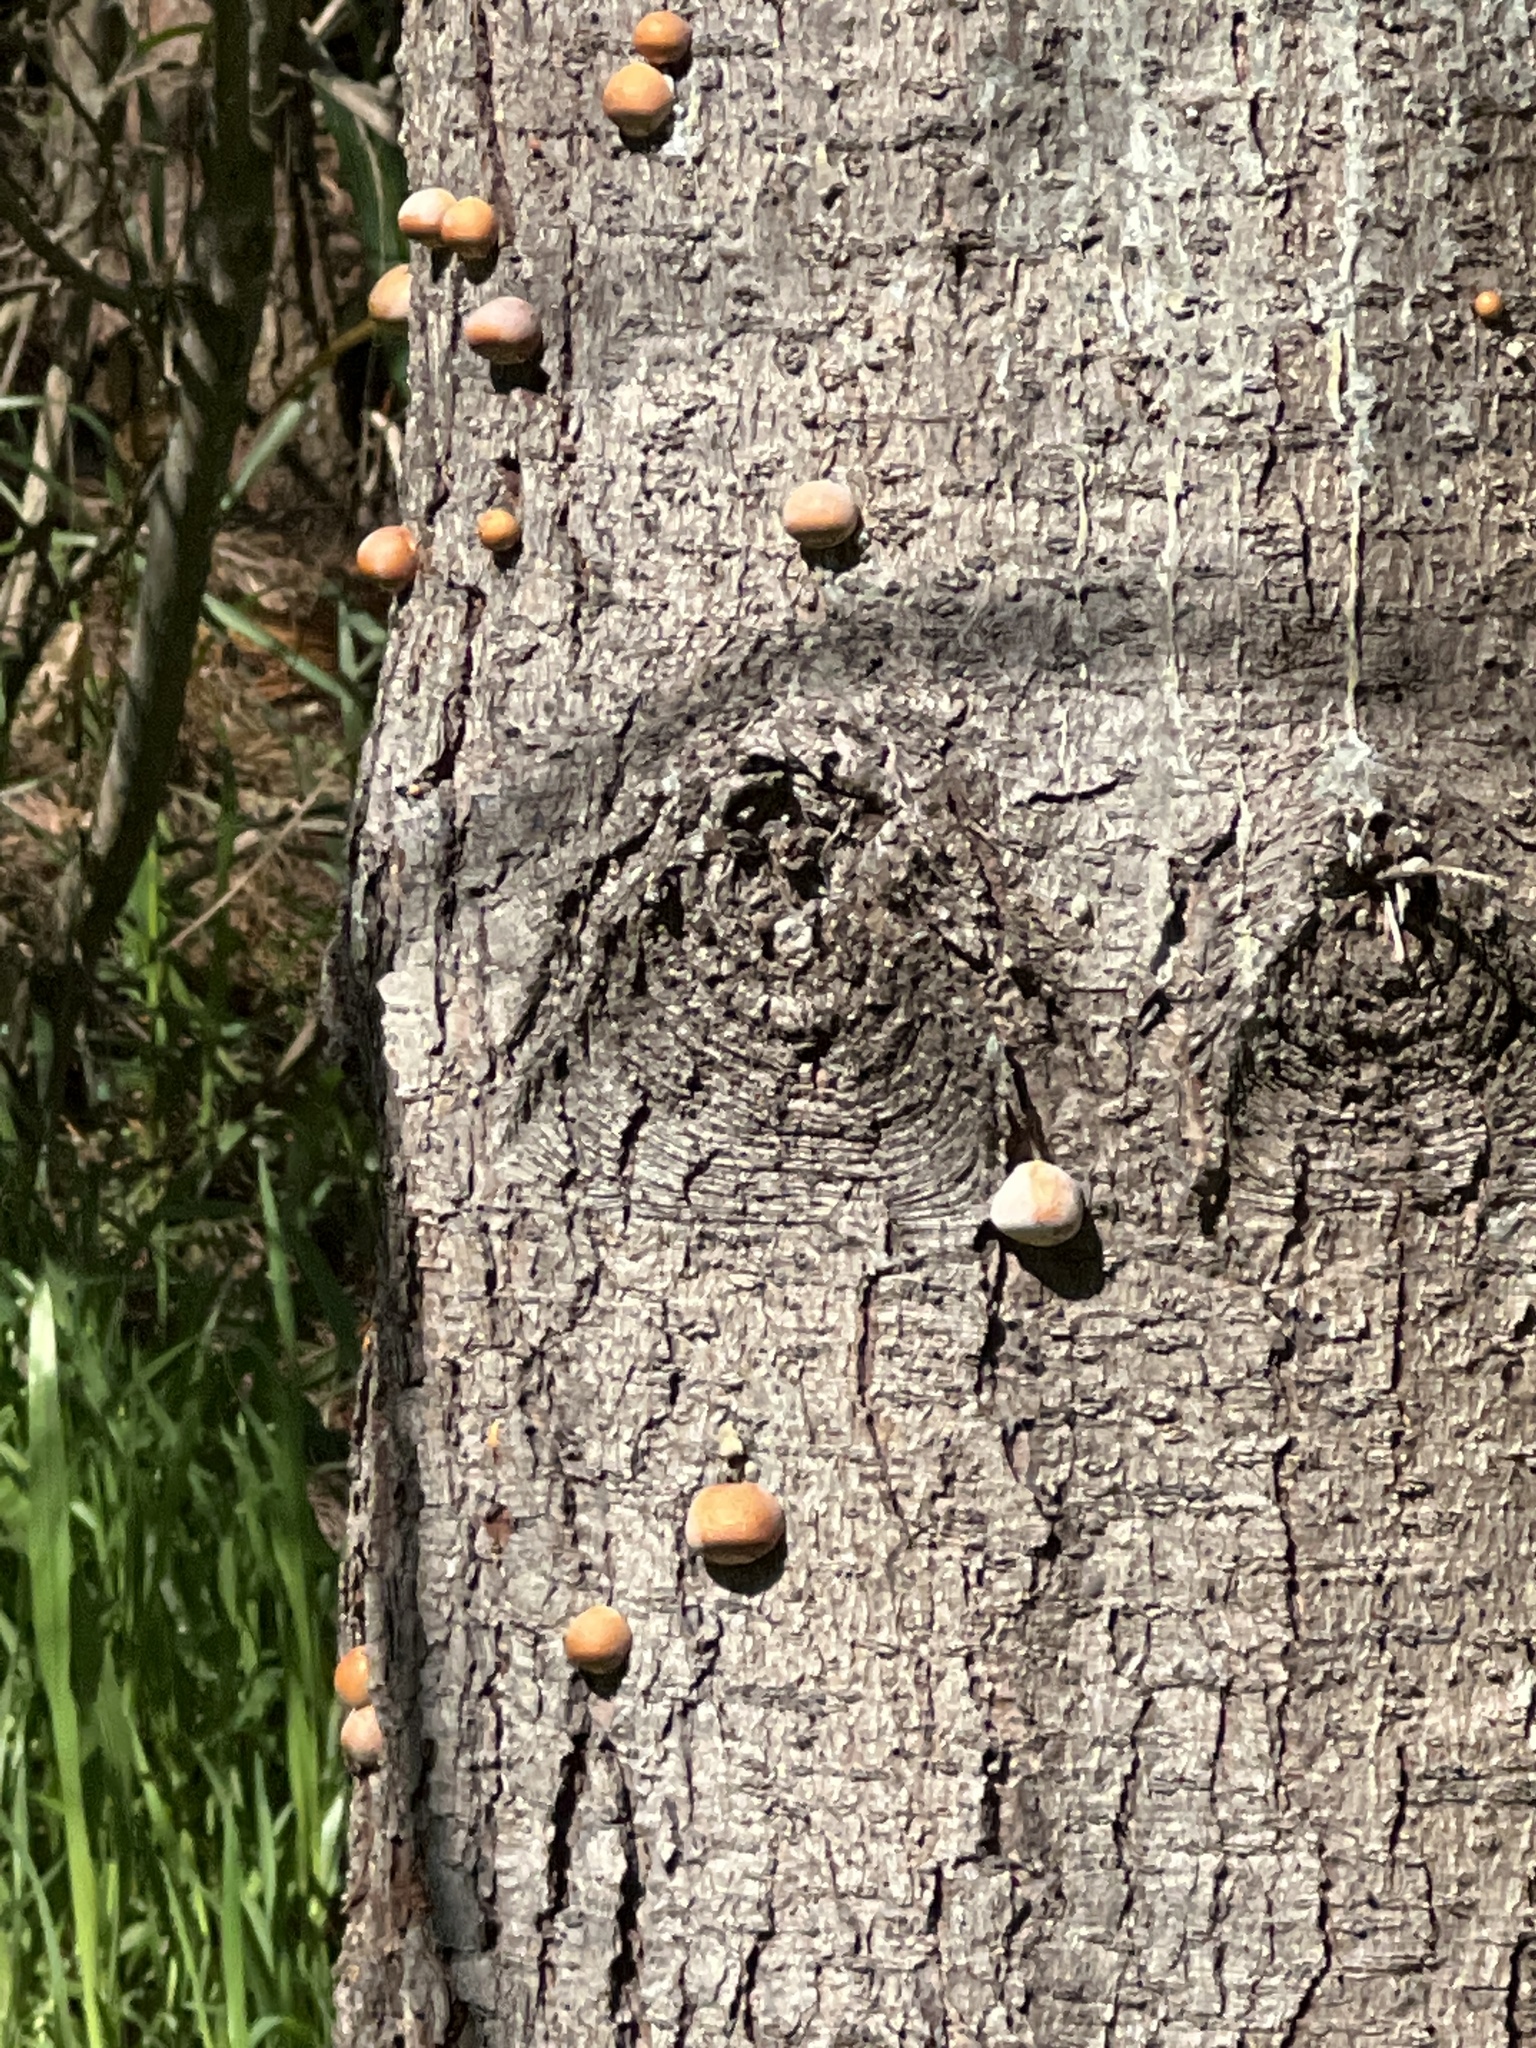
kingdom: Fungi
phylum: Basidiomycota
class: Agaricomycetes
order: Polyporales
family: Polyporaceae
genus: Cryptoporus
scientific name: Cryptoporus volvatus
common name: Veiled polypore
